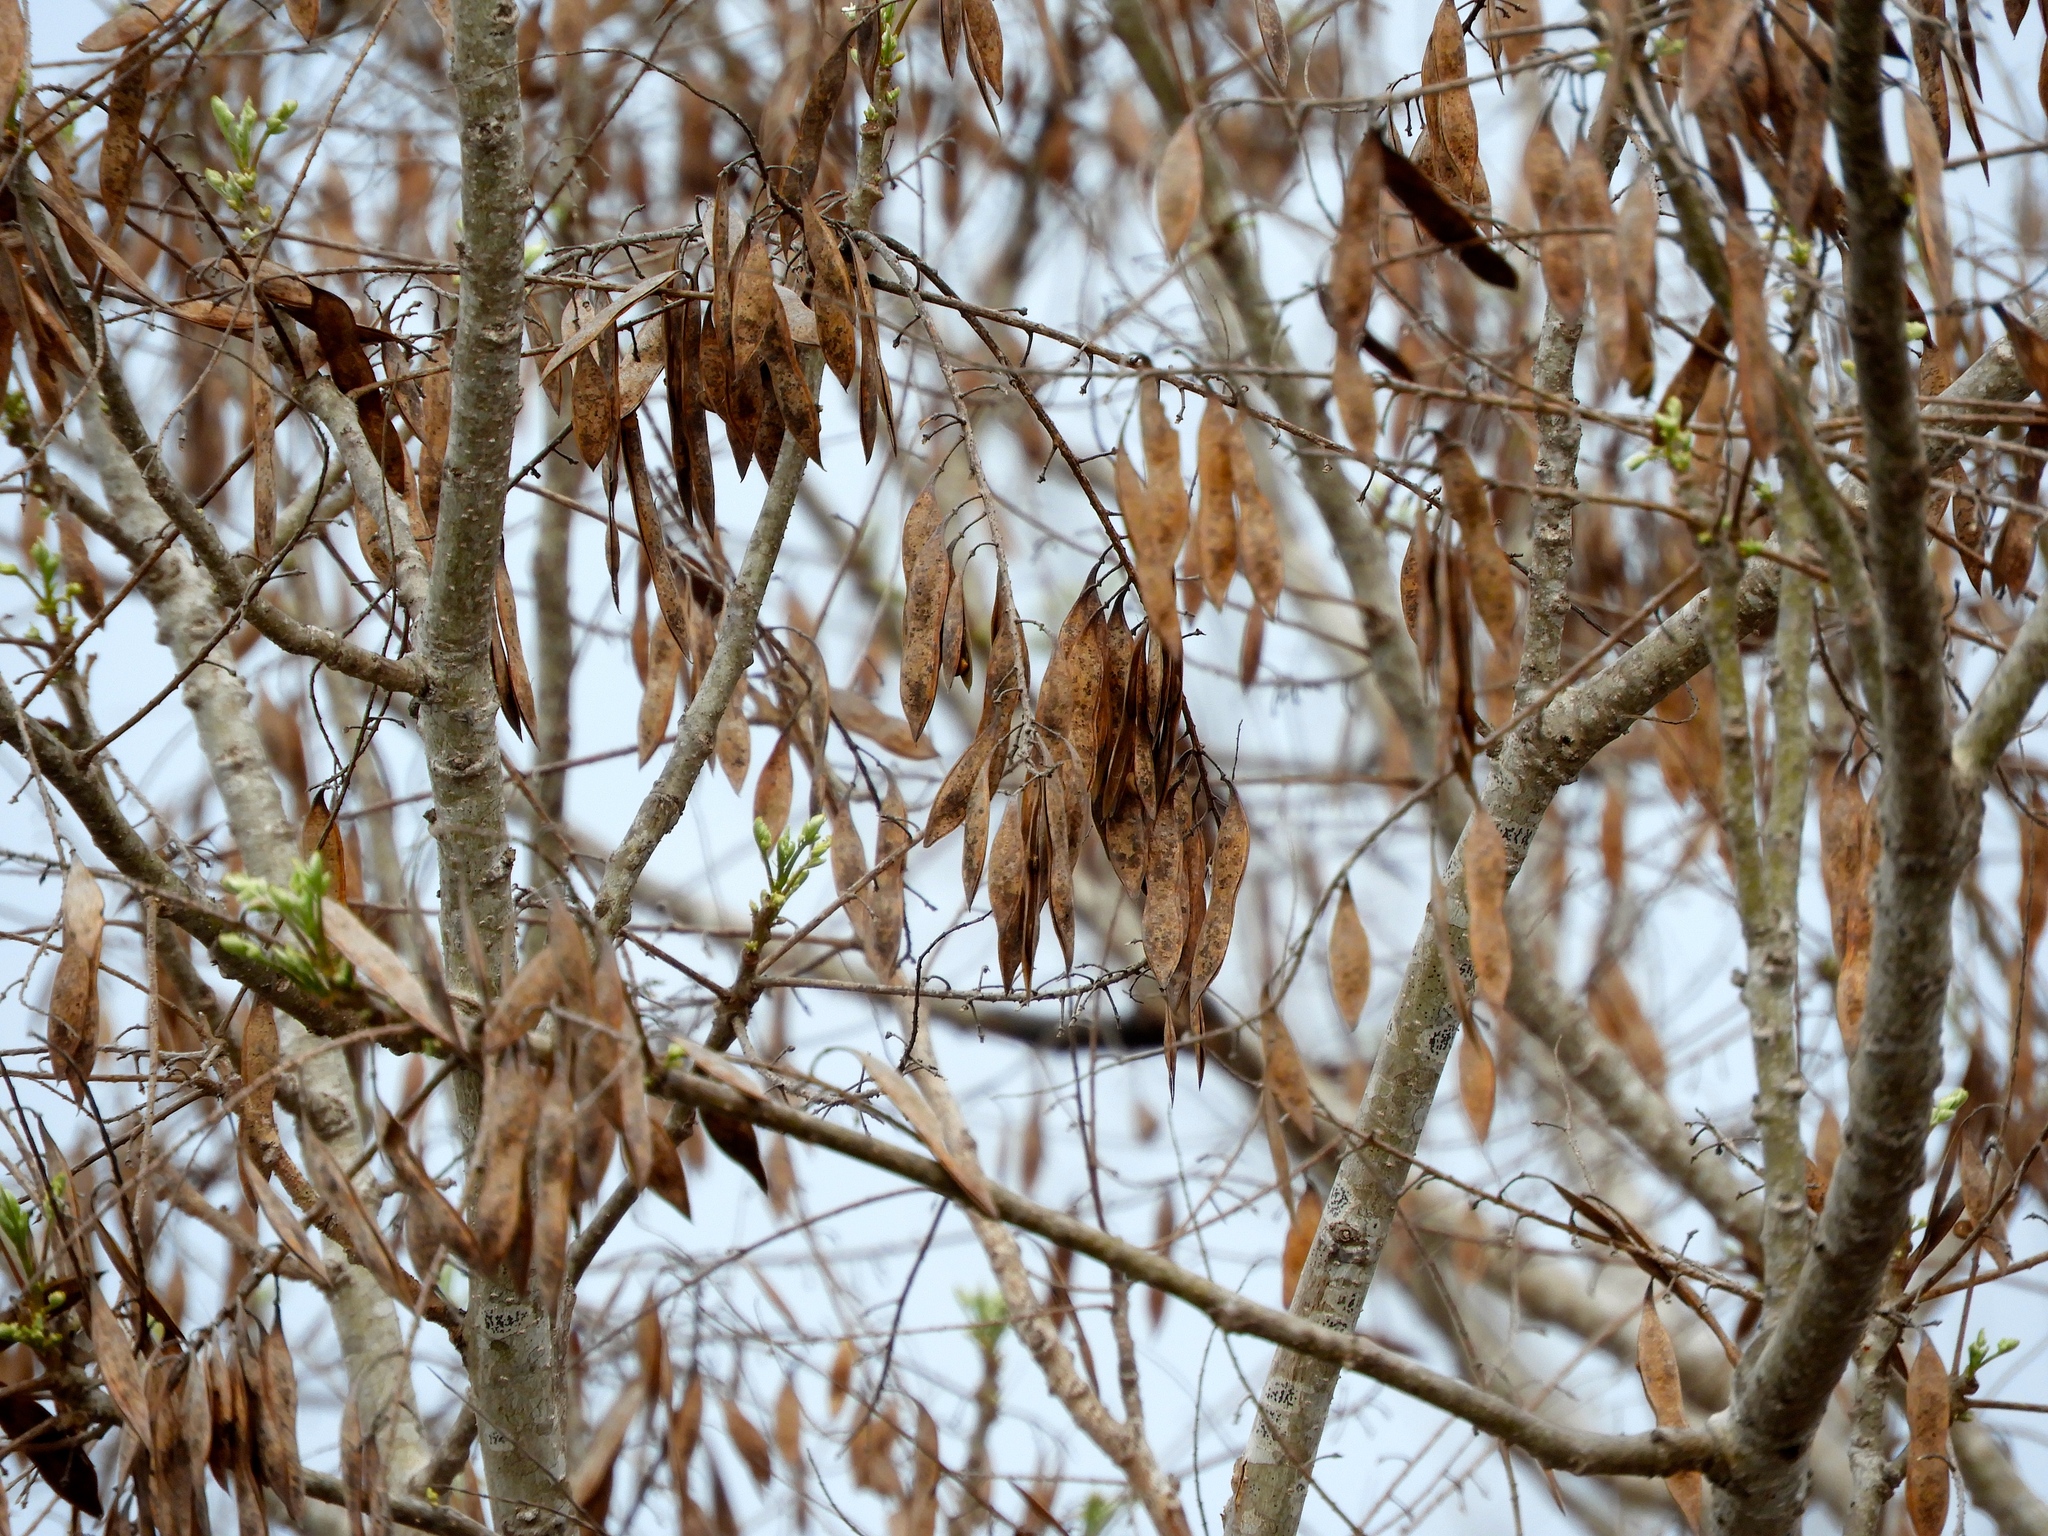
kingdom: Plantae
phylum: Tracheophyta
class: Magnoliopsida
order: Fabales
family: Fabaceae
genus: Conzattia
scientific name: Conzattia sericea
